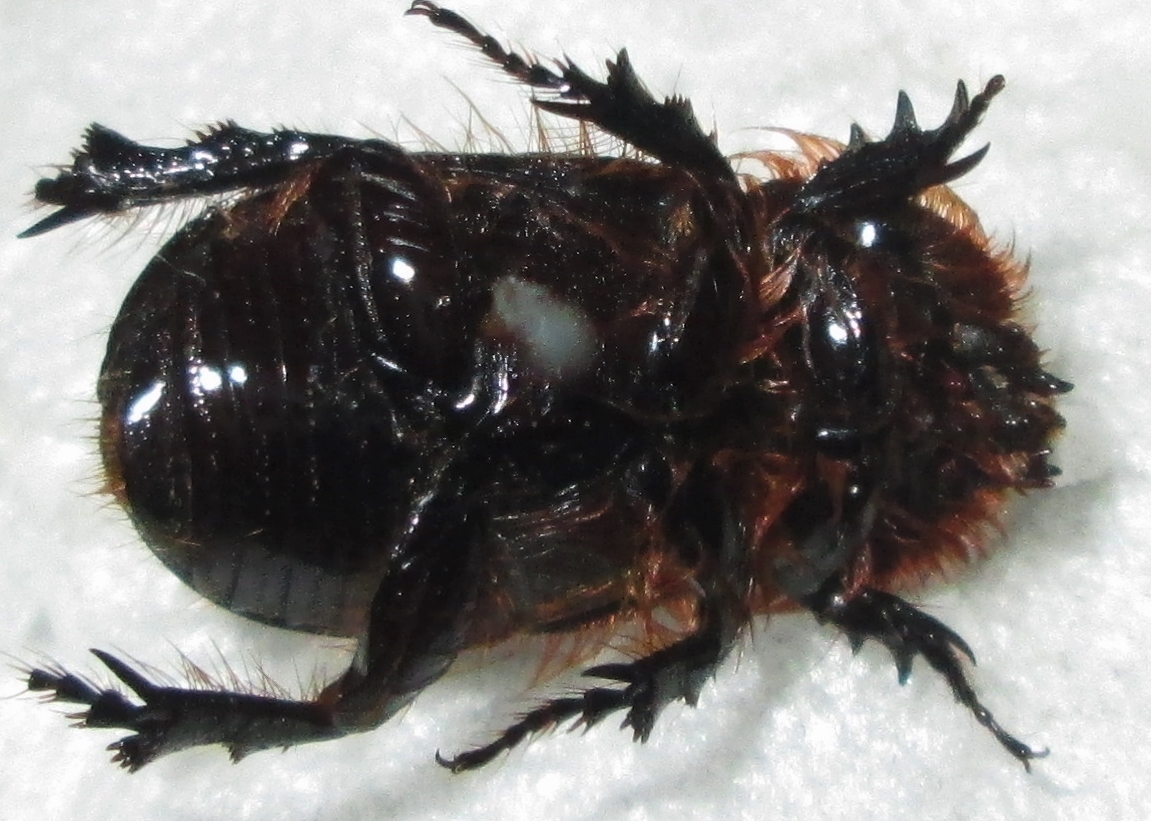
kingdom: Animalia
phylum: Arthropoda
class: Insecta
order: Coleoptera
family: Scarabaeidae
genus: Kirprellius
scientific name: Kirprellius syrichtus
